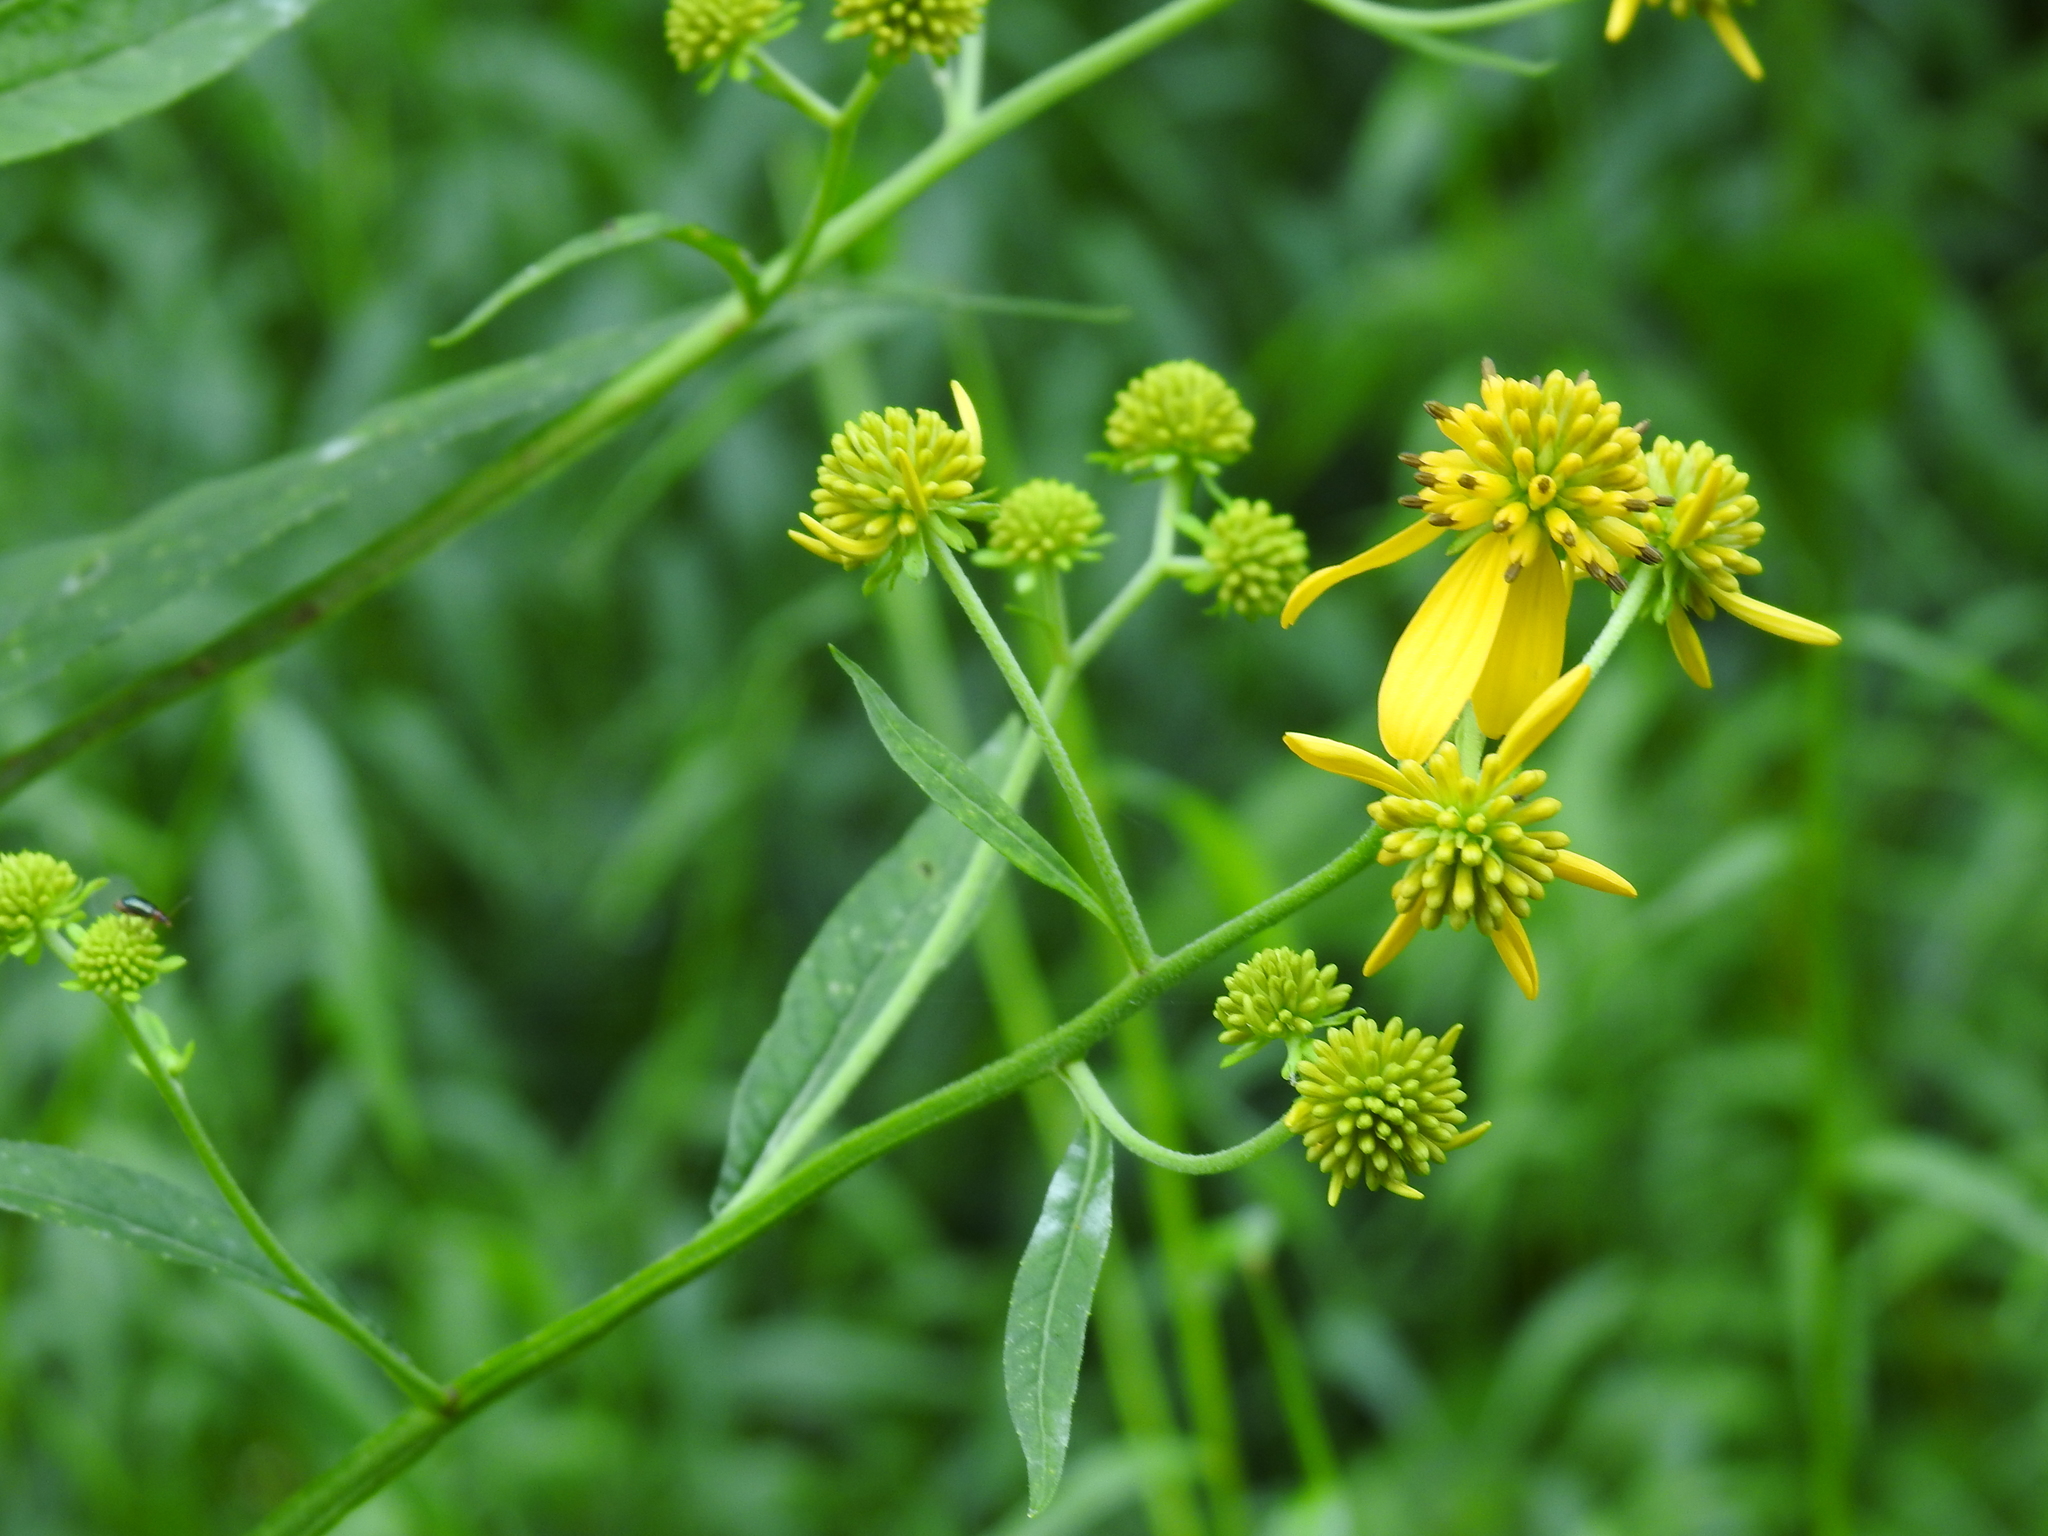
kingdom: Plantae
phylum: Tracheophyta
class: Magnoliopsida
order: Asterales
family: Asteraceae
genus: Verbesina
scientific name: Verbesina alternifolia
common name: Wingstem
